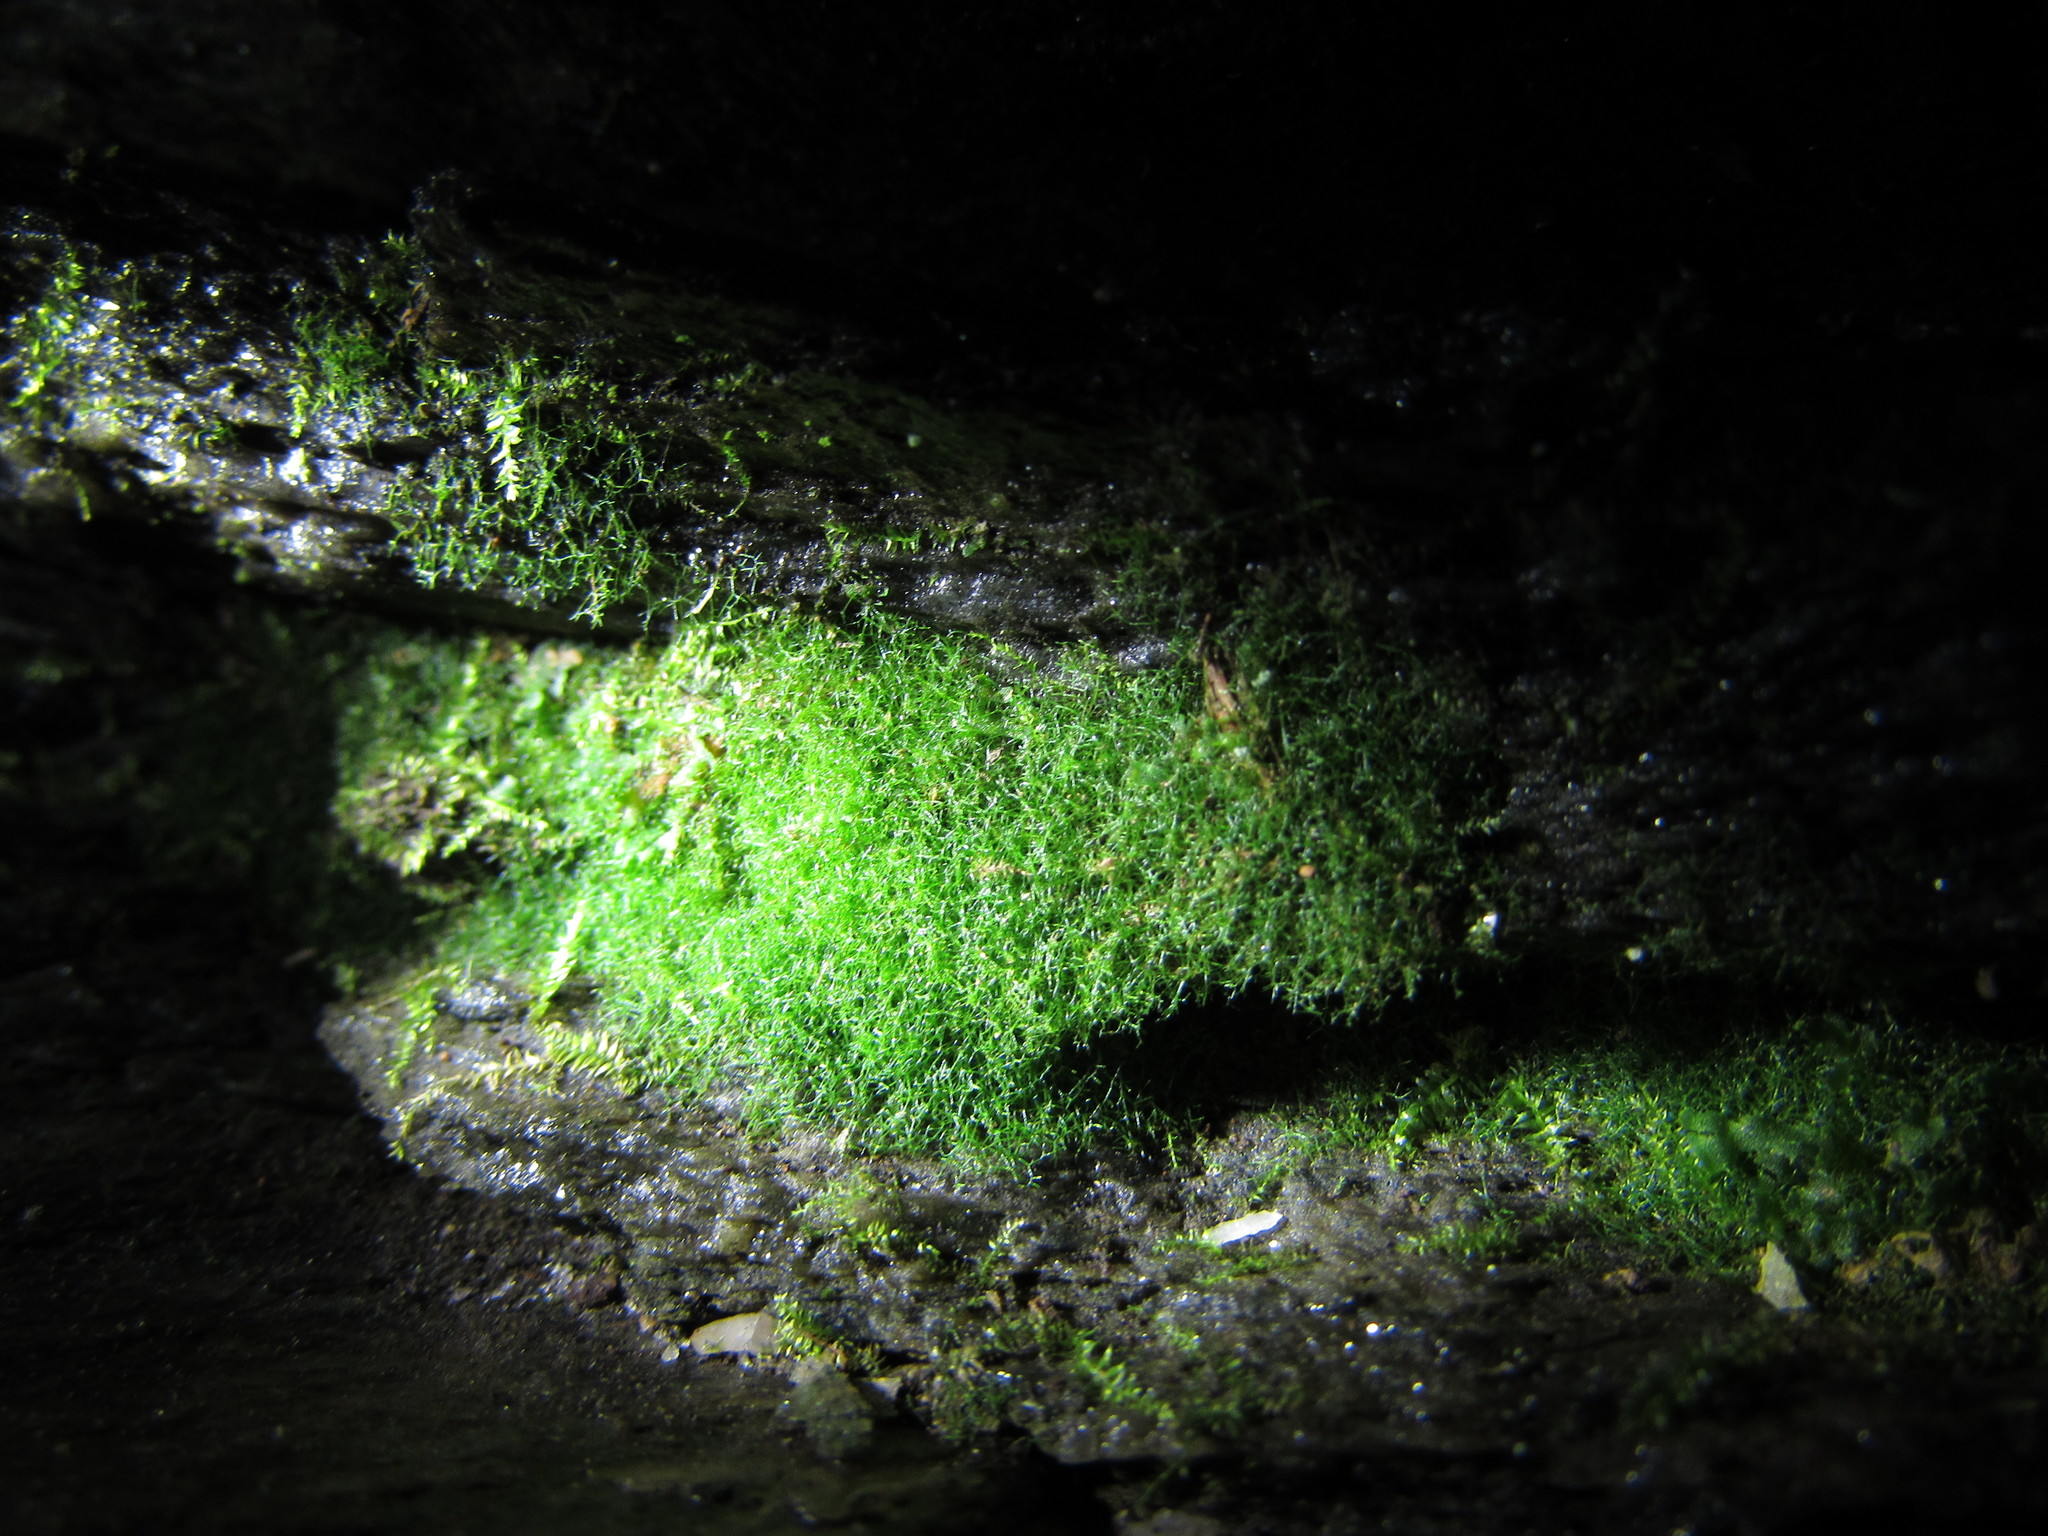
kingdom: Plantae
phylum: Tracheophyta
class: Polypodiopsida
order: Polypodiales
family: Pteridaceae
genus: Vittaria
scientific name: Vittaria appalachiana
